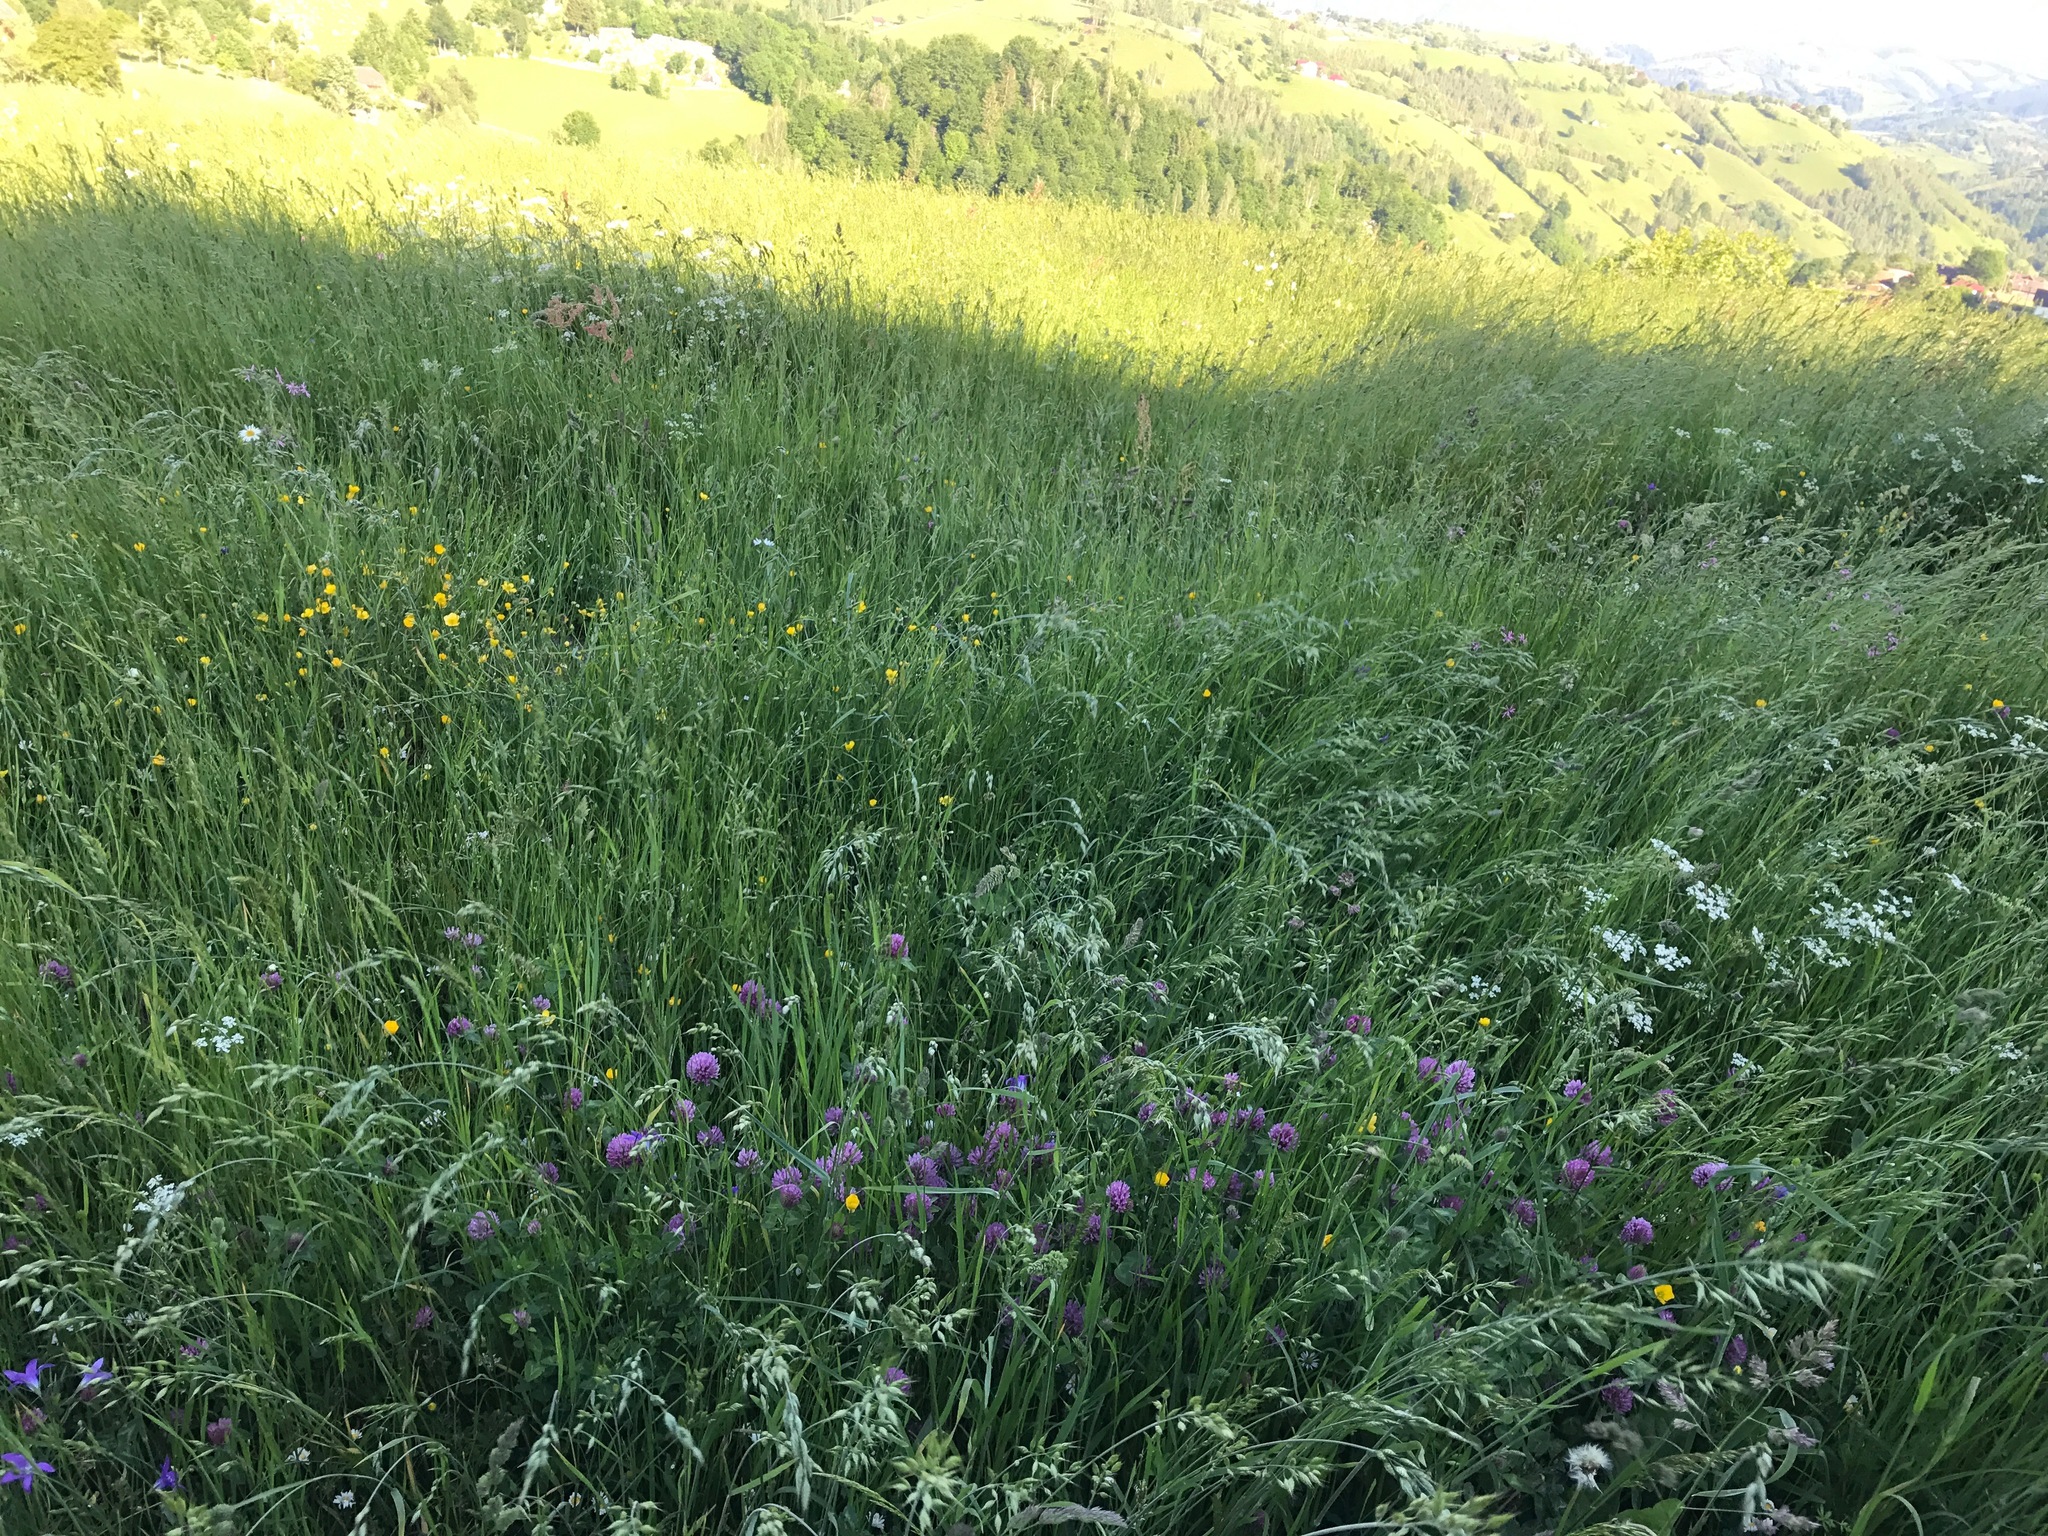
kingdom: Plantae
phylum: Tracheophyta
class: Magnoliopsida
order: Fabales
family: Fabaceae
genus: Trifolium
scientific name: Trifolium pratense
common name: Red clover
